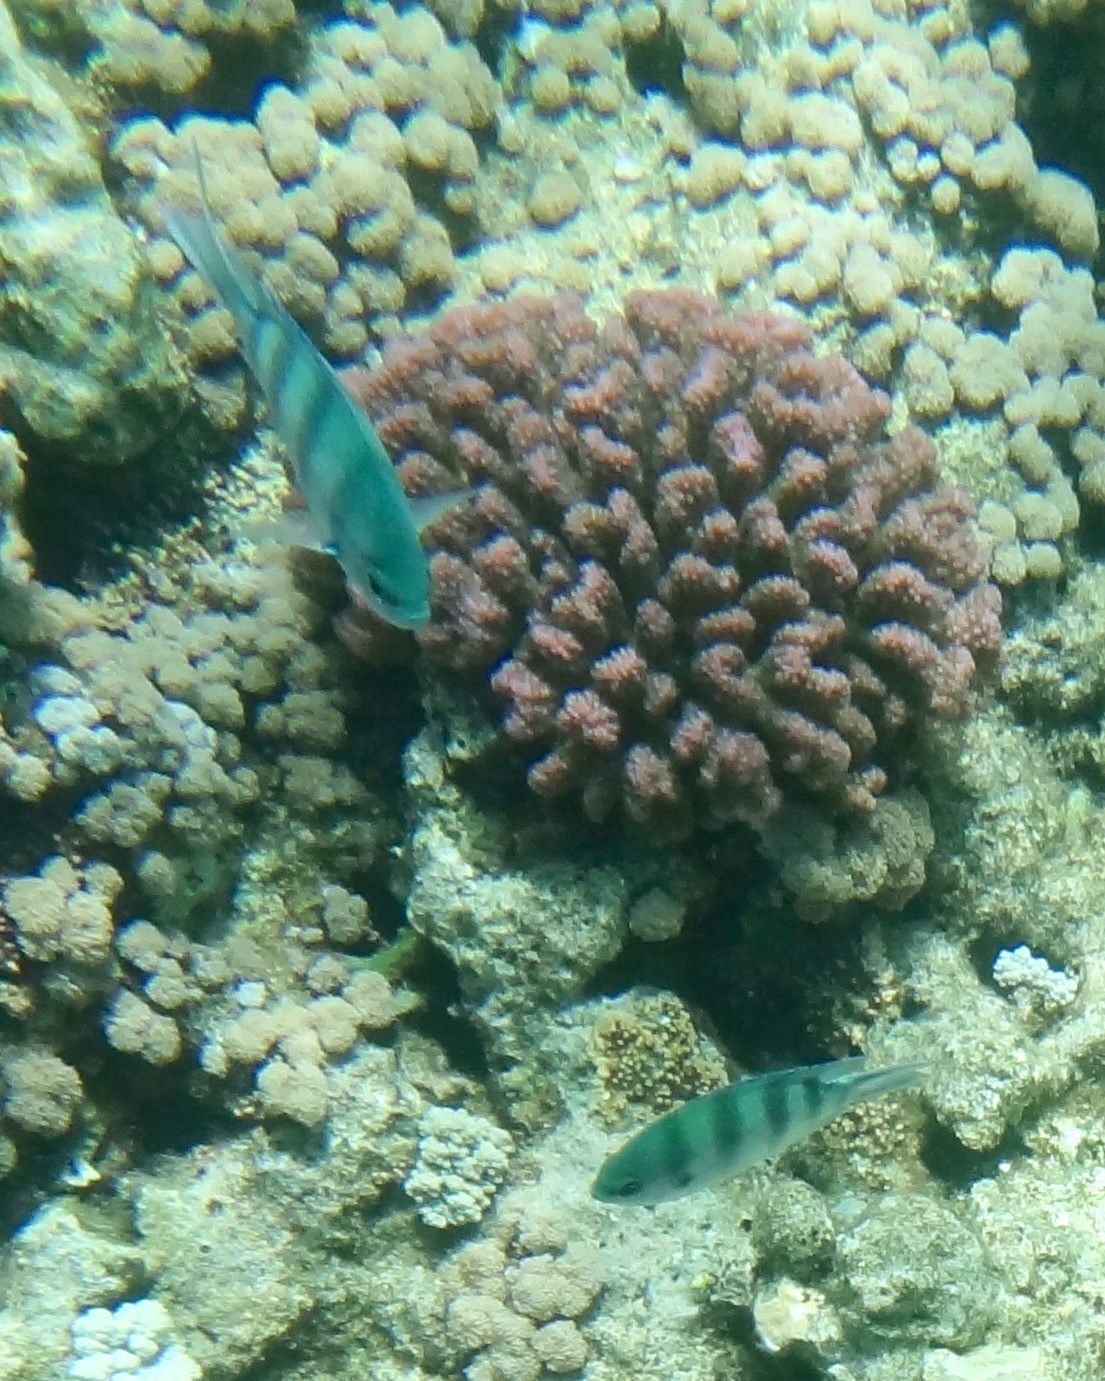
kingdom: Animalia
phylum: Chordata
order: Perciformes
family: Pomacentridae
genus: Abudefduf
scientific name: Abudefduf sexfasciatus
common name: Scissortail sergeant
